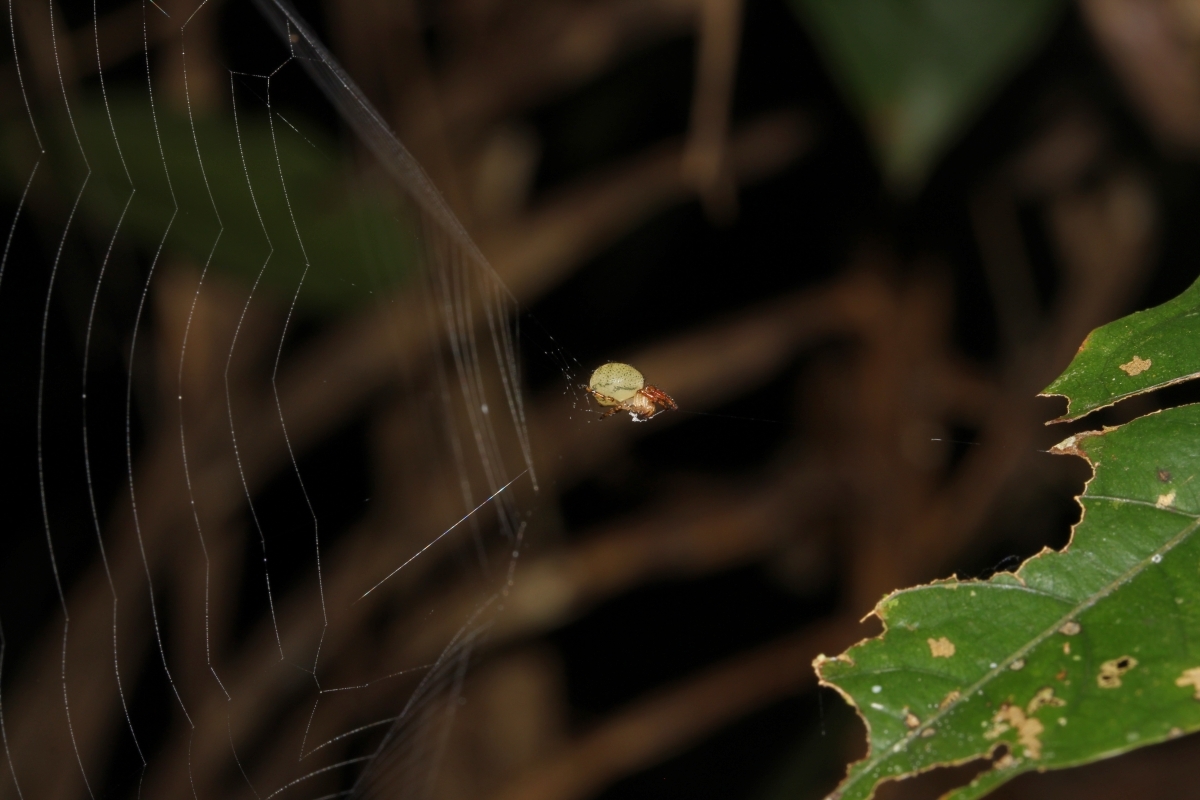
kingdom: Animalia
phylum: Arthropoda
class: Arachnida
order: Araneae
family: Theridiosomatidae
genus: Naatlo
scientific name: Naatlo
